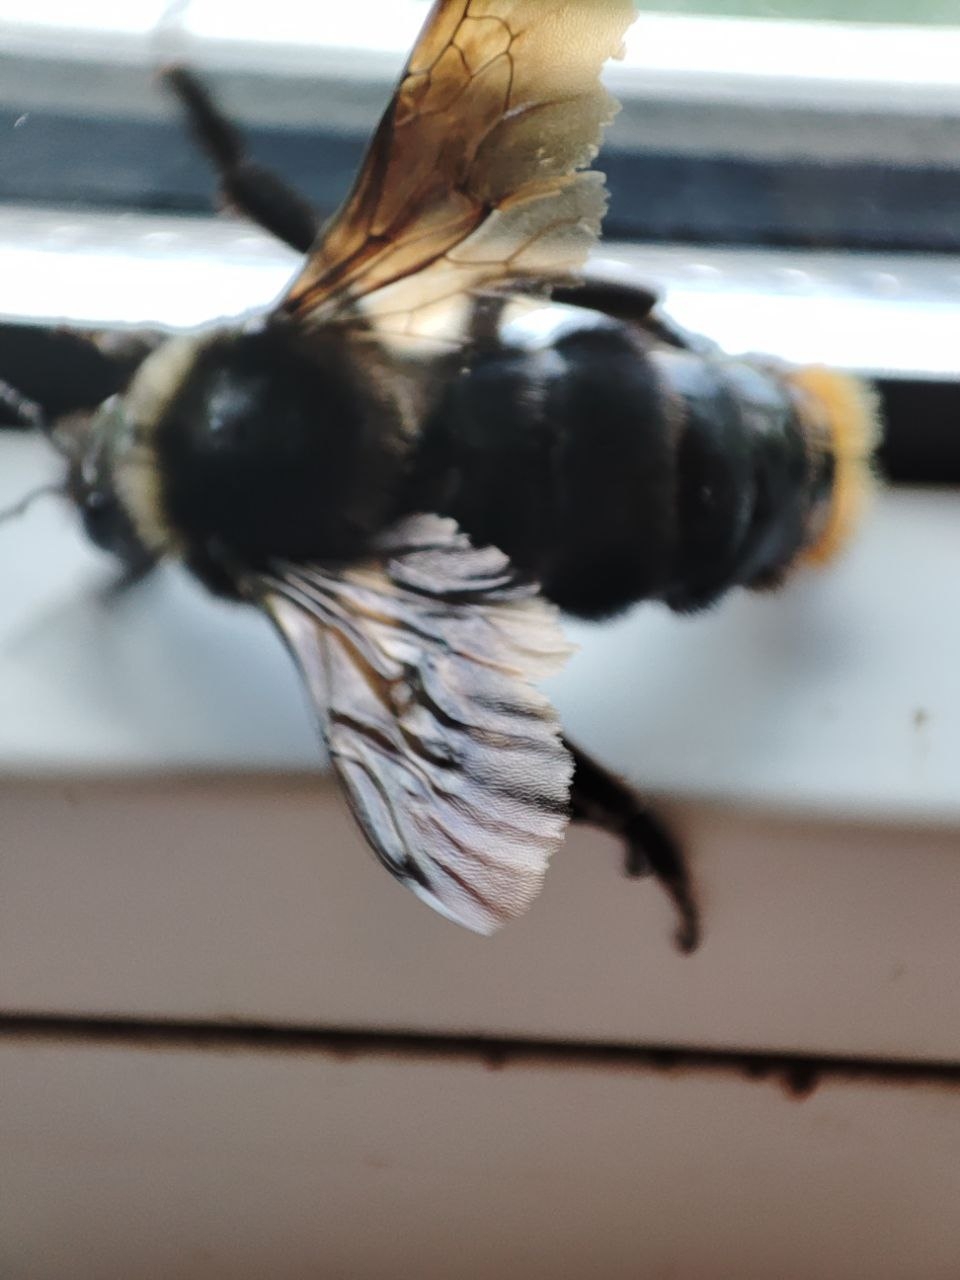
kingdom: Animalia
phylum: Arthropoda
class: Insecta
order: Hymenoptera
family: Apidae
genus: Bombus
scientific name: Bombus rupestris
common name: Hill cuckoo-bee
